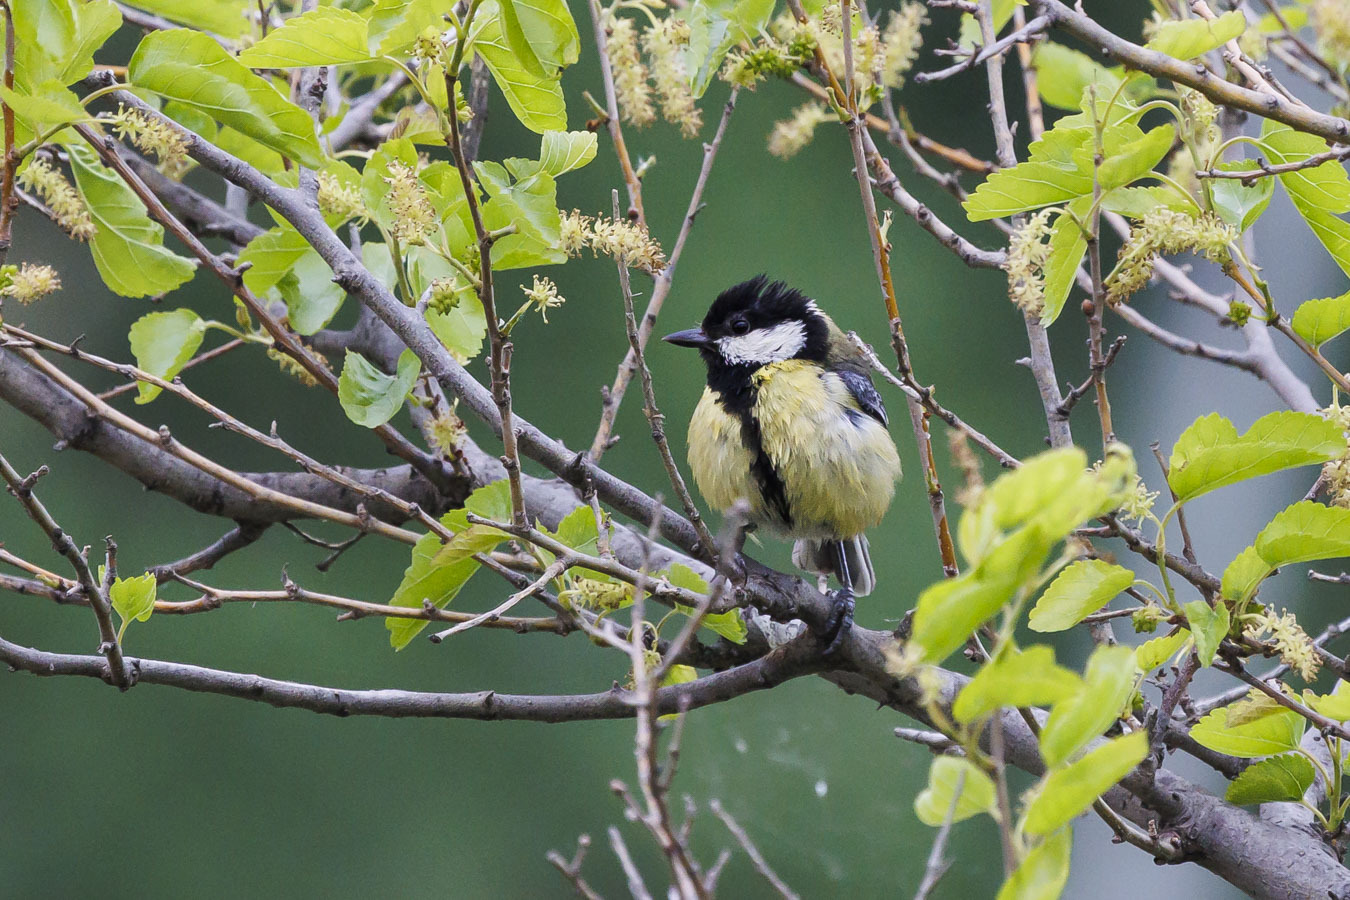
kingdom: Animalia
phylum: Chordata
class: Aves
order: Passeriformes
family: Paridae
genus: Parus
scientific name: Parus major
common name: Great tit
